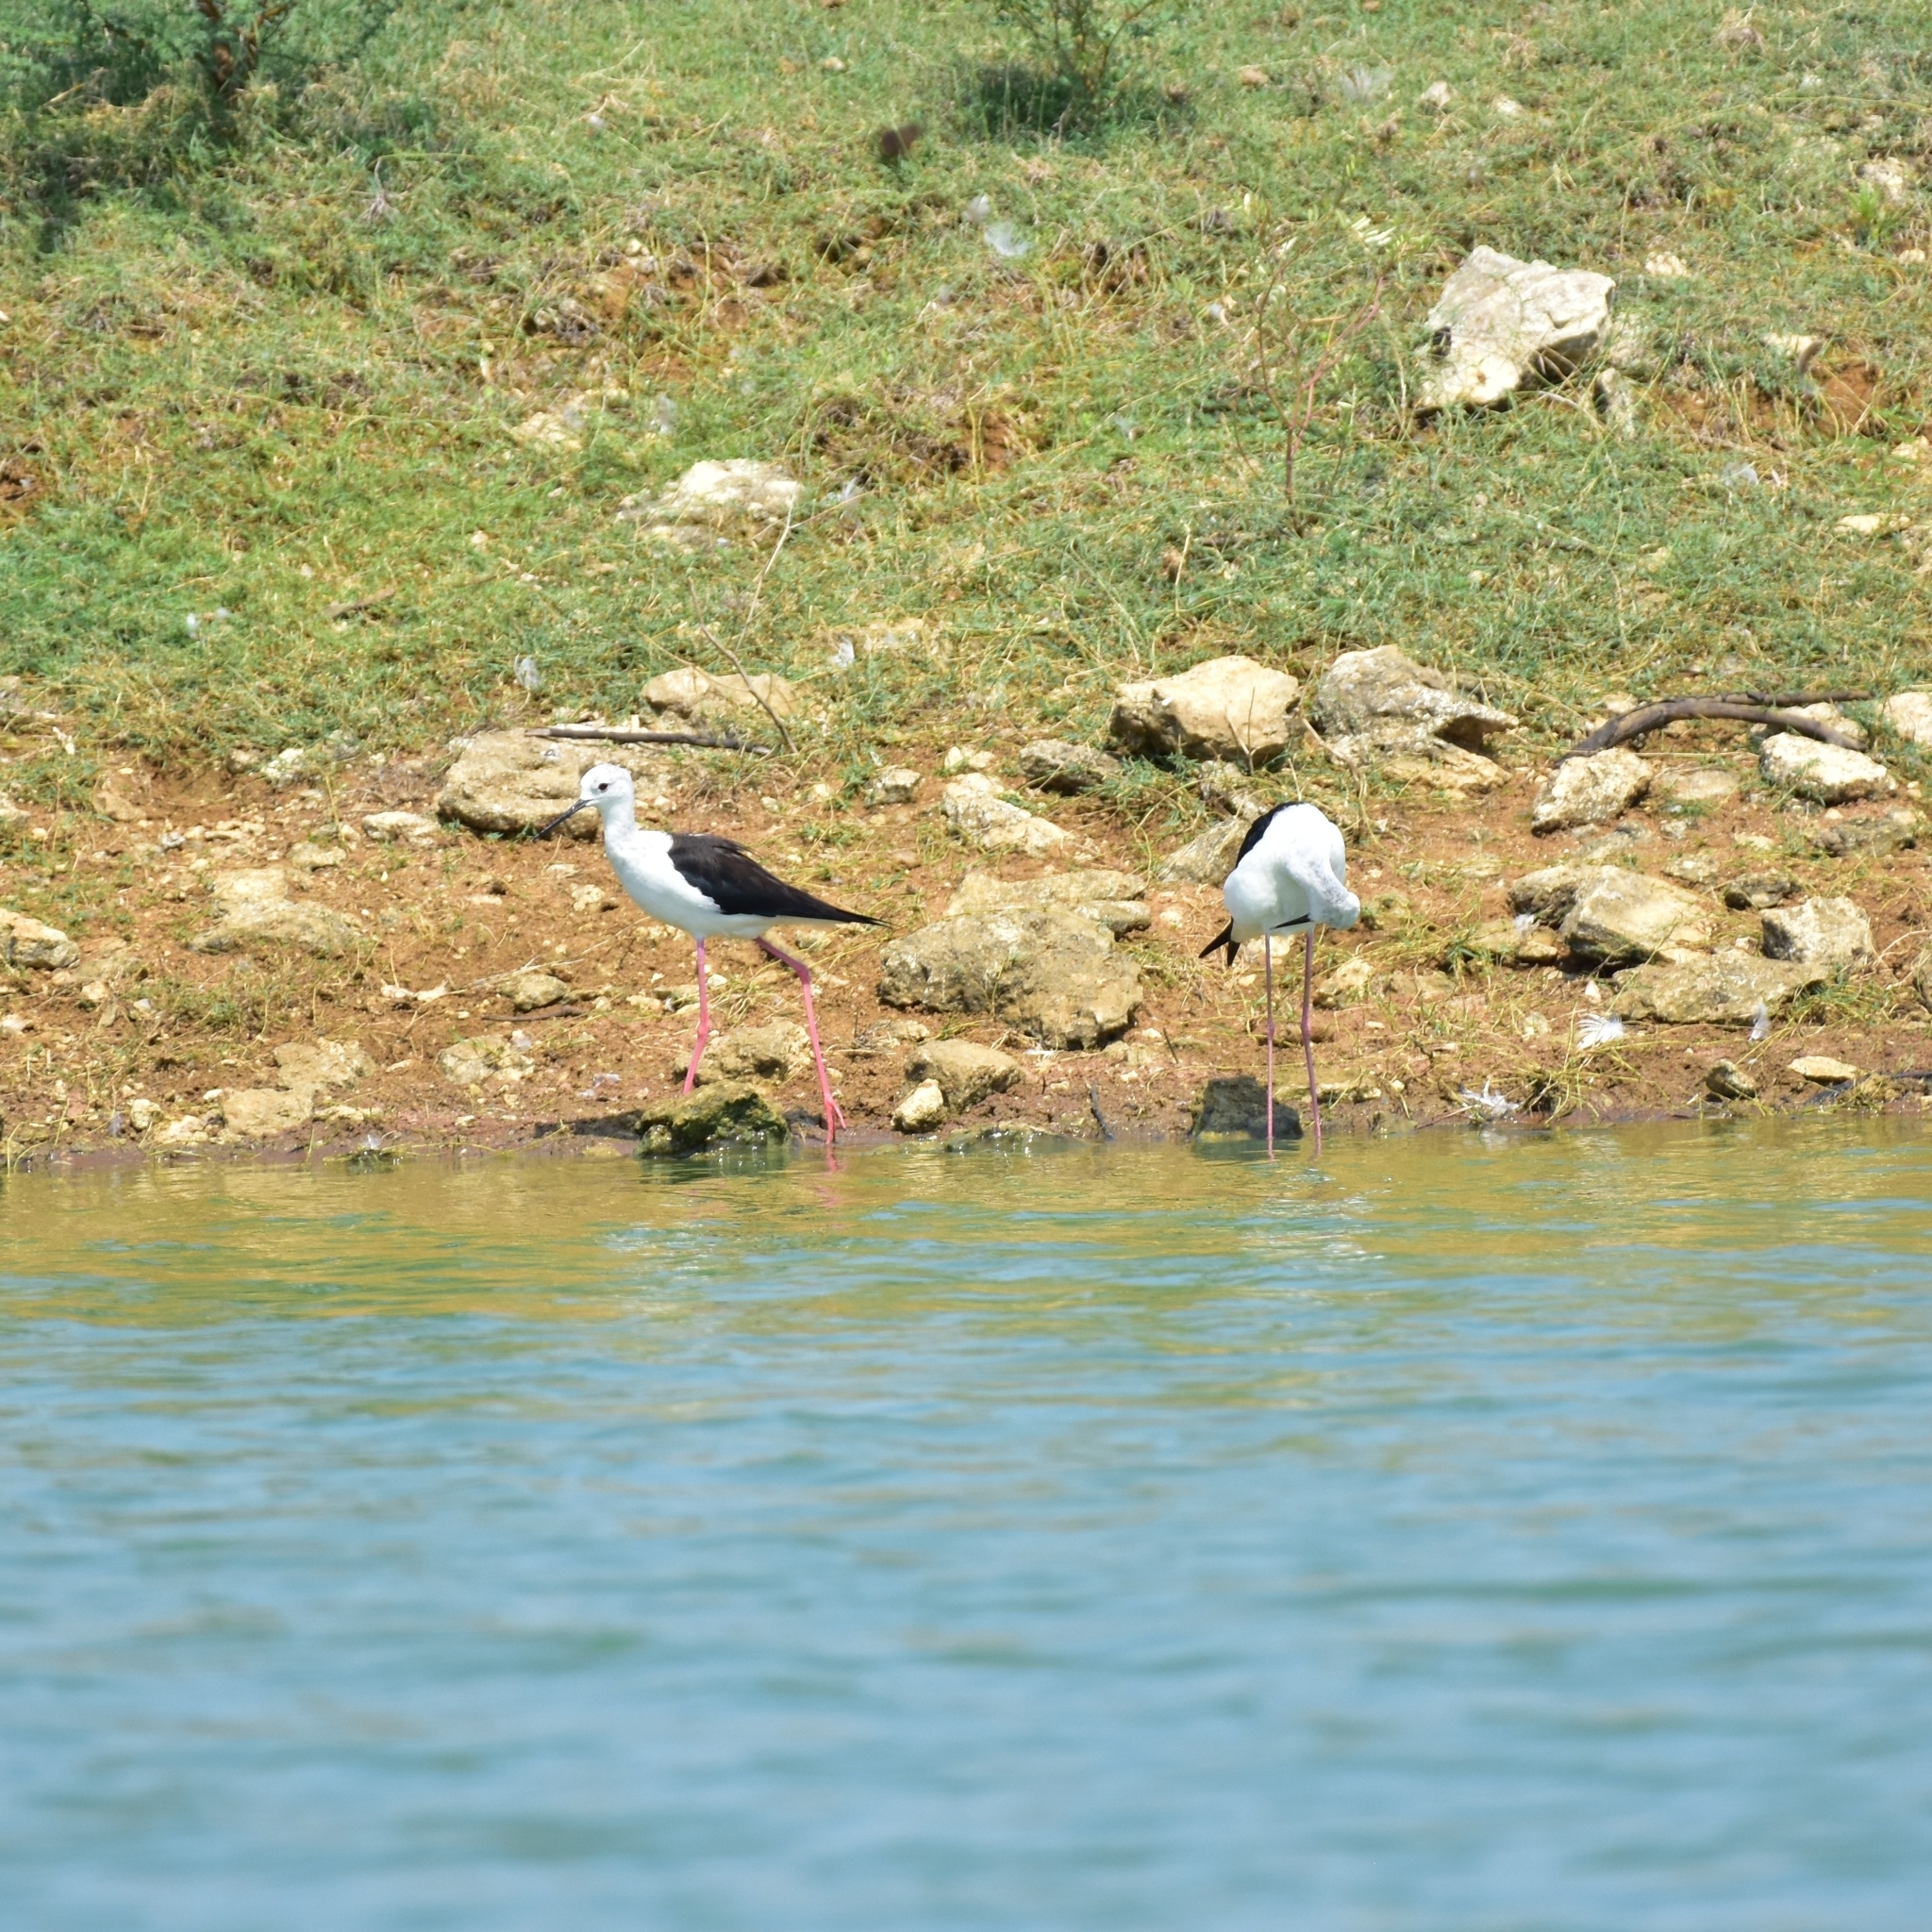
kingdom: Animalia
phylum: Chordata
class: Aves
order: Charadriiformes
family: Recurvirostridae
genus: Himantopus
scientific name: Himantopus himantopus
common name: Black-winged stilt
